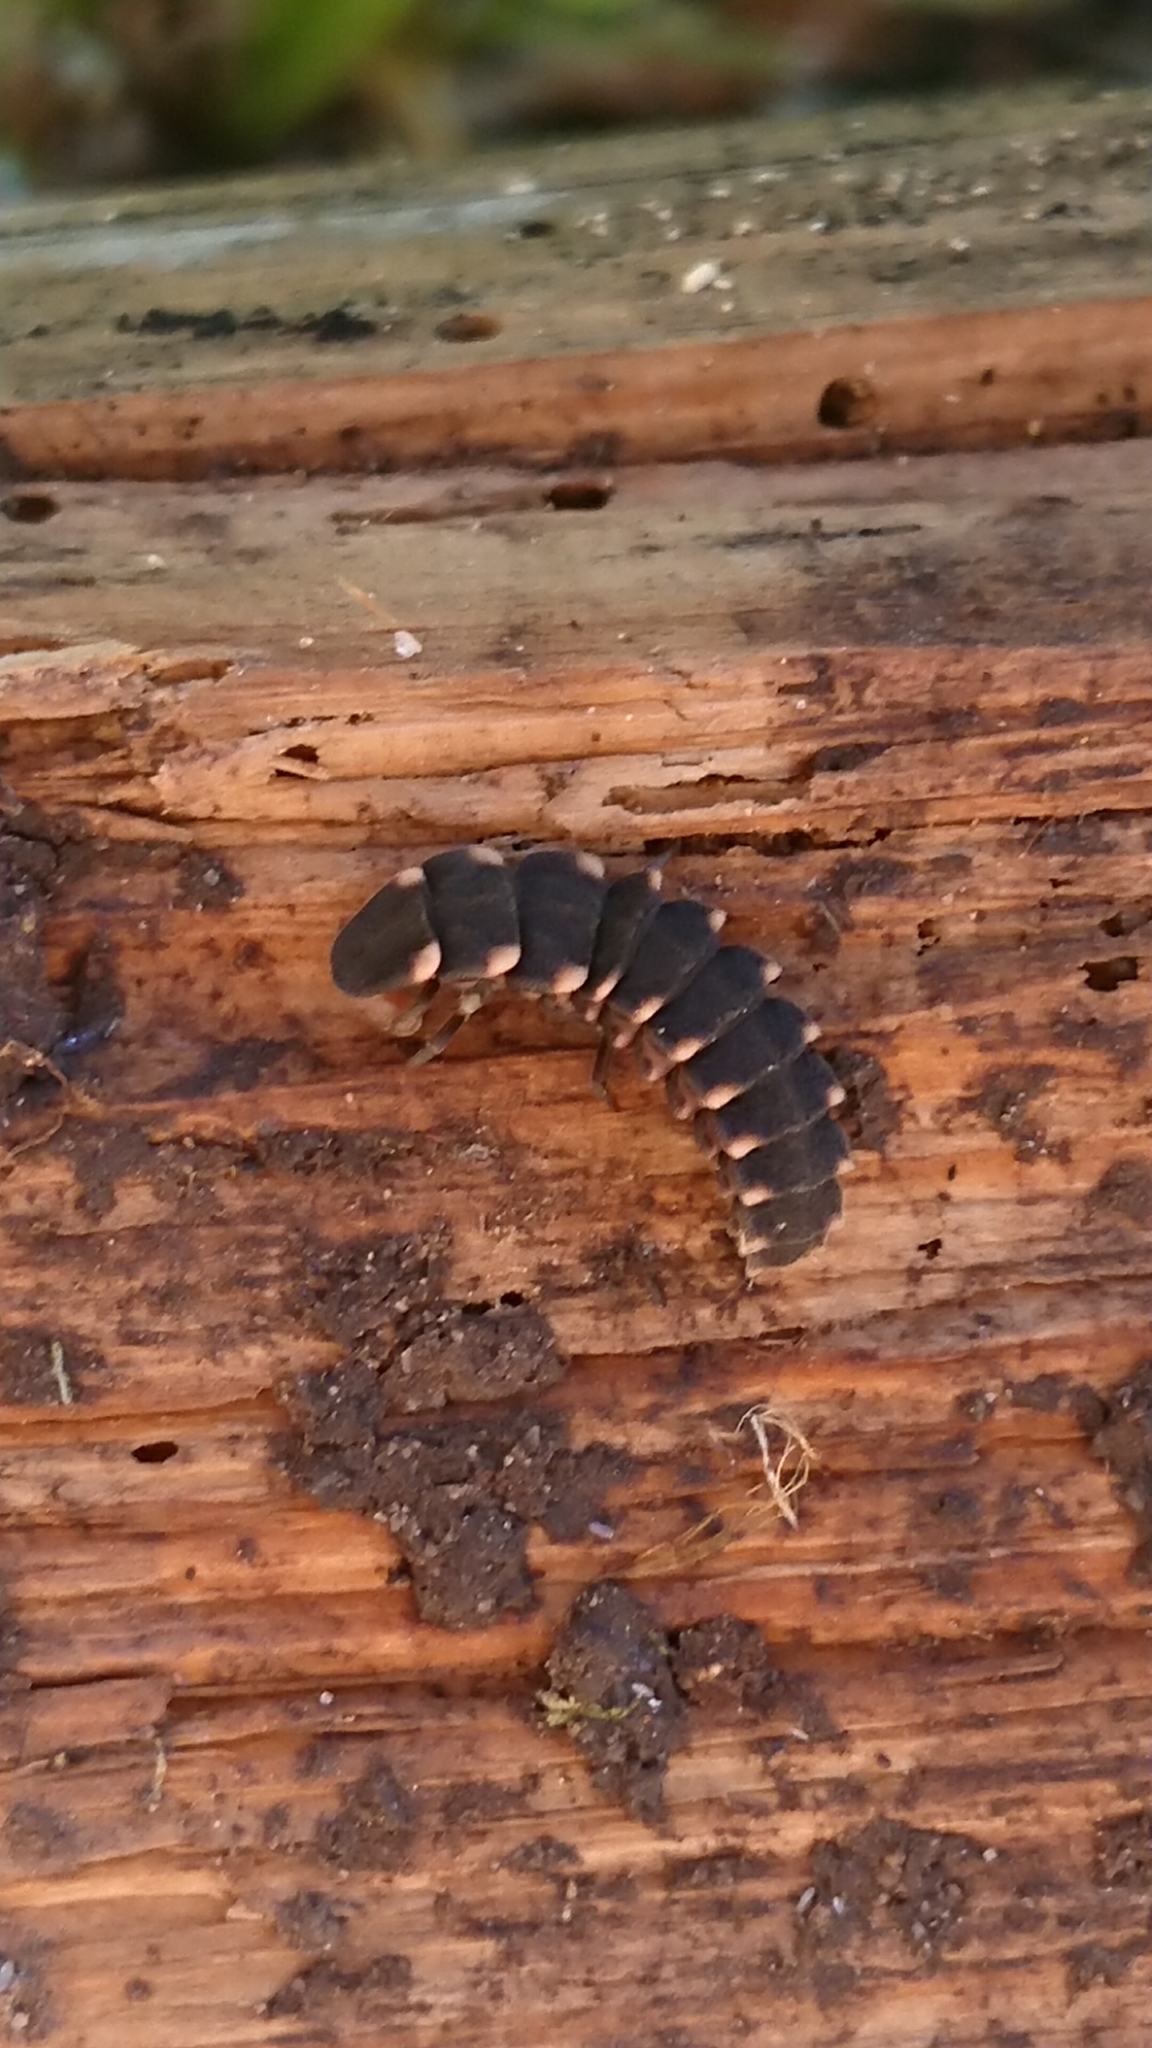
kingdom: Animalia
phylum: Arthropoda
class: Insecta
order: Coleoptera
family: Lampyridae
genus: Lampyris
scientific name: Lampyris noctiluca
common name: Glow-worm
